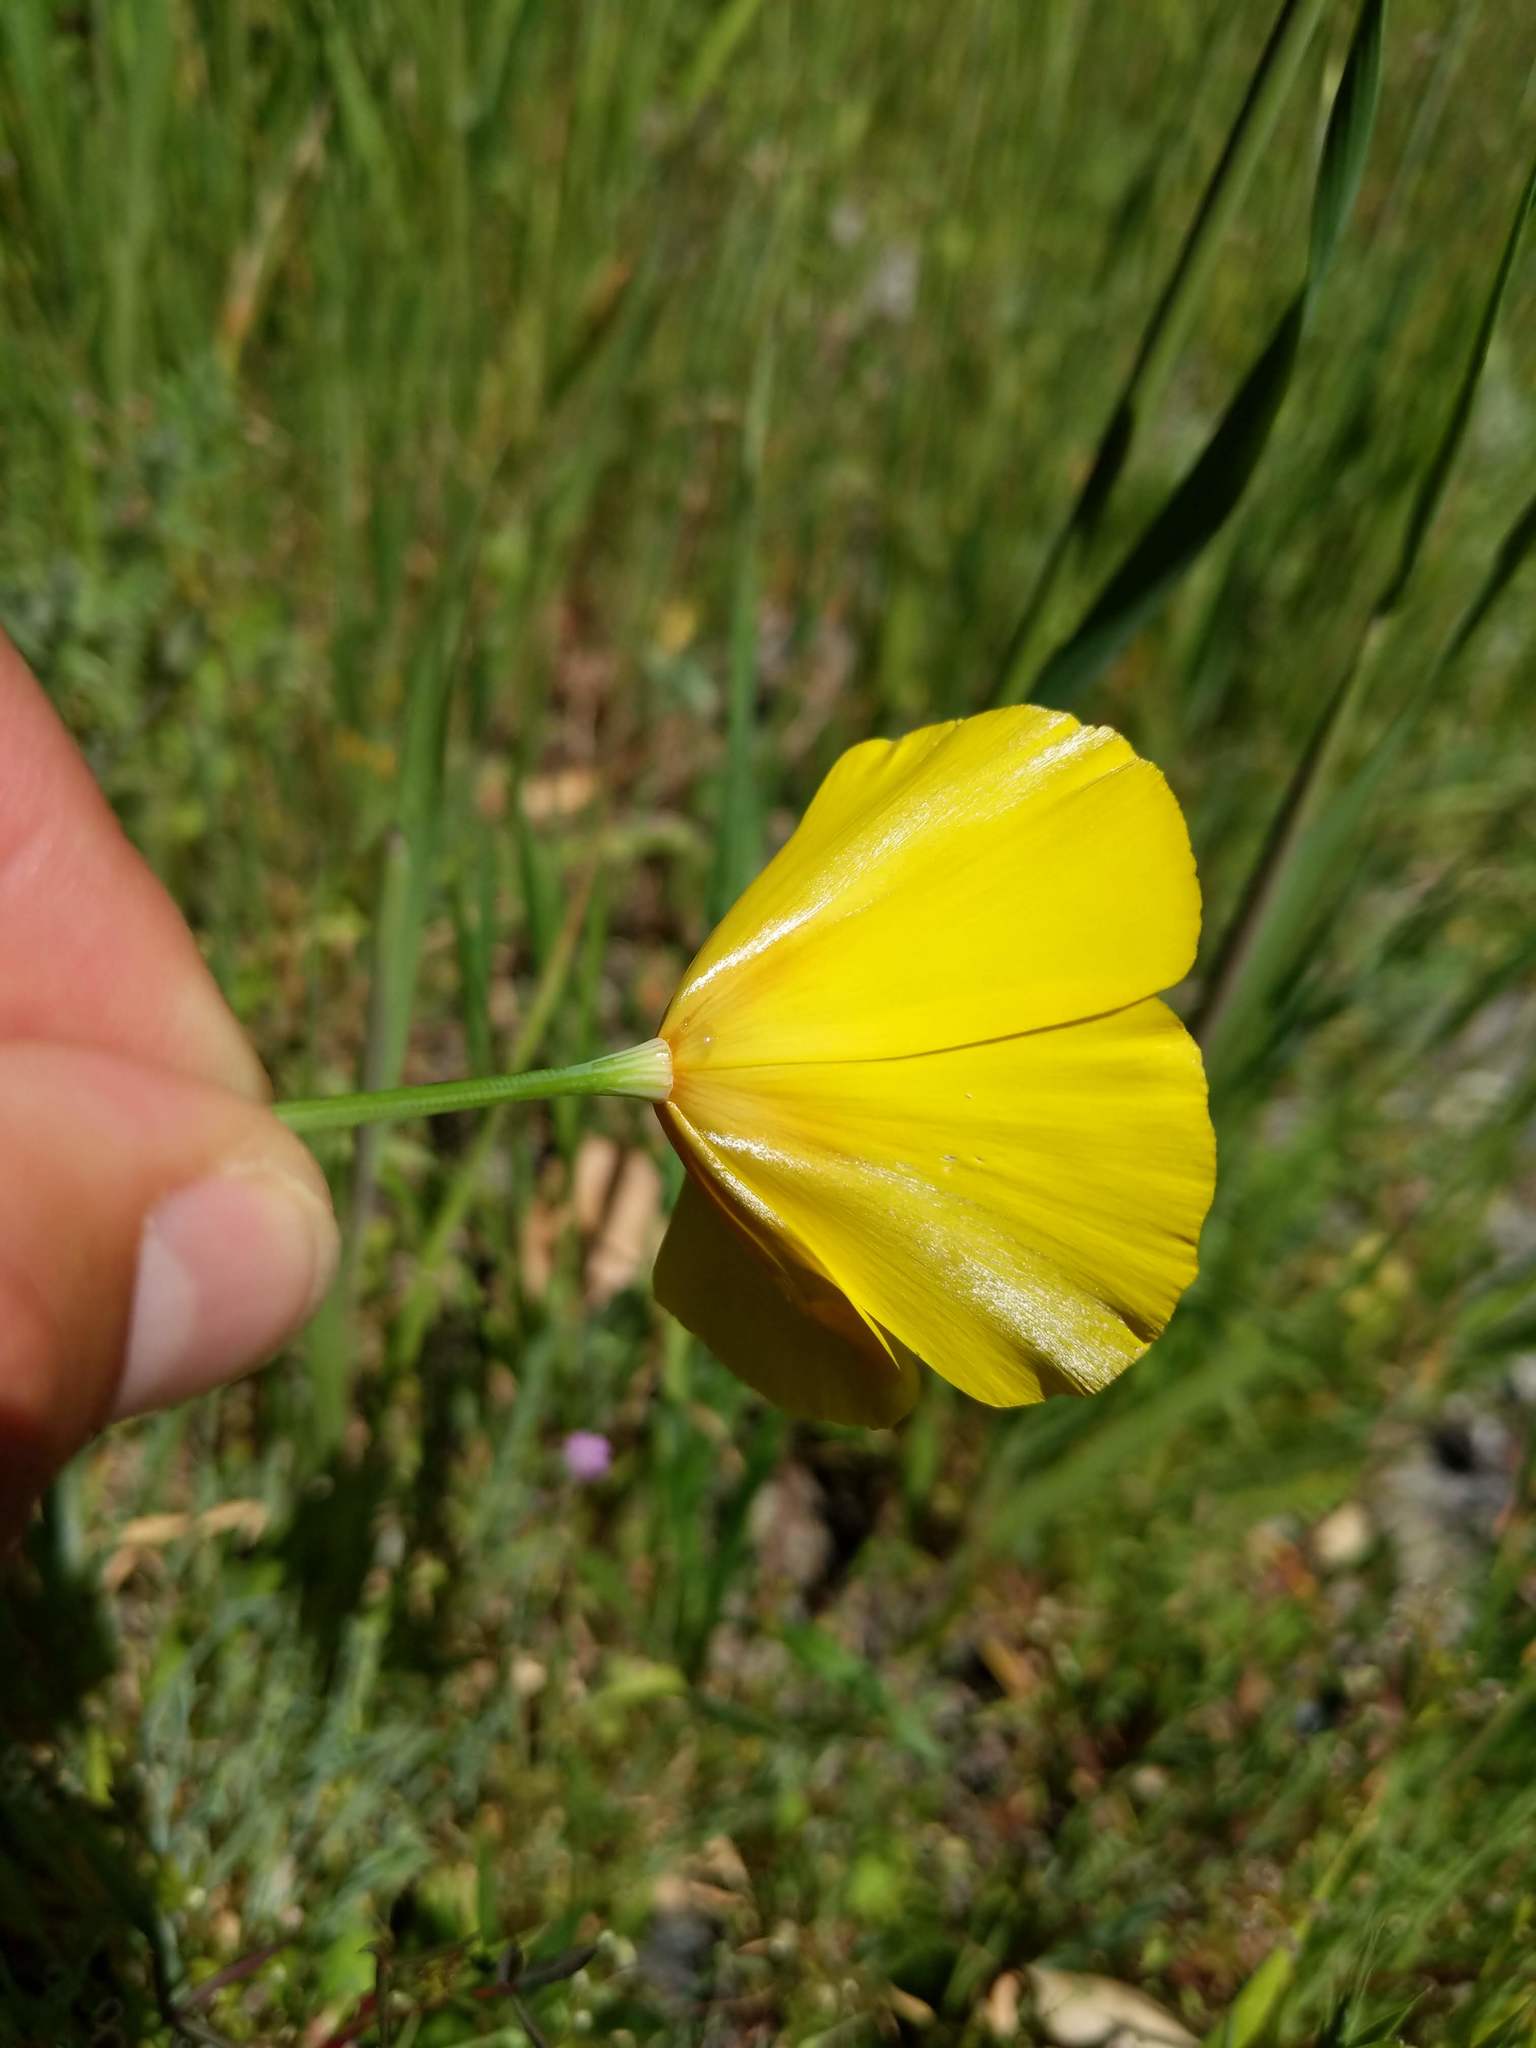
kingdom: Plantae
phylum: Tracheophyta
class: Magnoliopsida
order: Ranunculales
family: Papaveraceae
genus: Eschscholzia
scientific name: Eschscholzia caespitosa
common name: Tufted california-poppy
